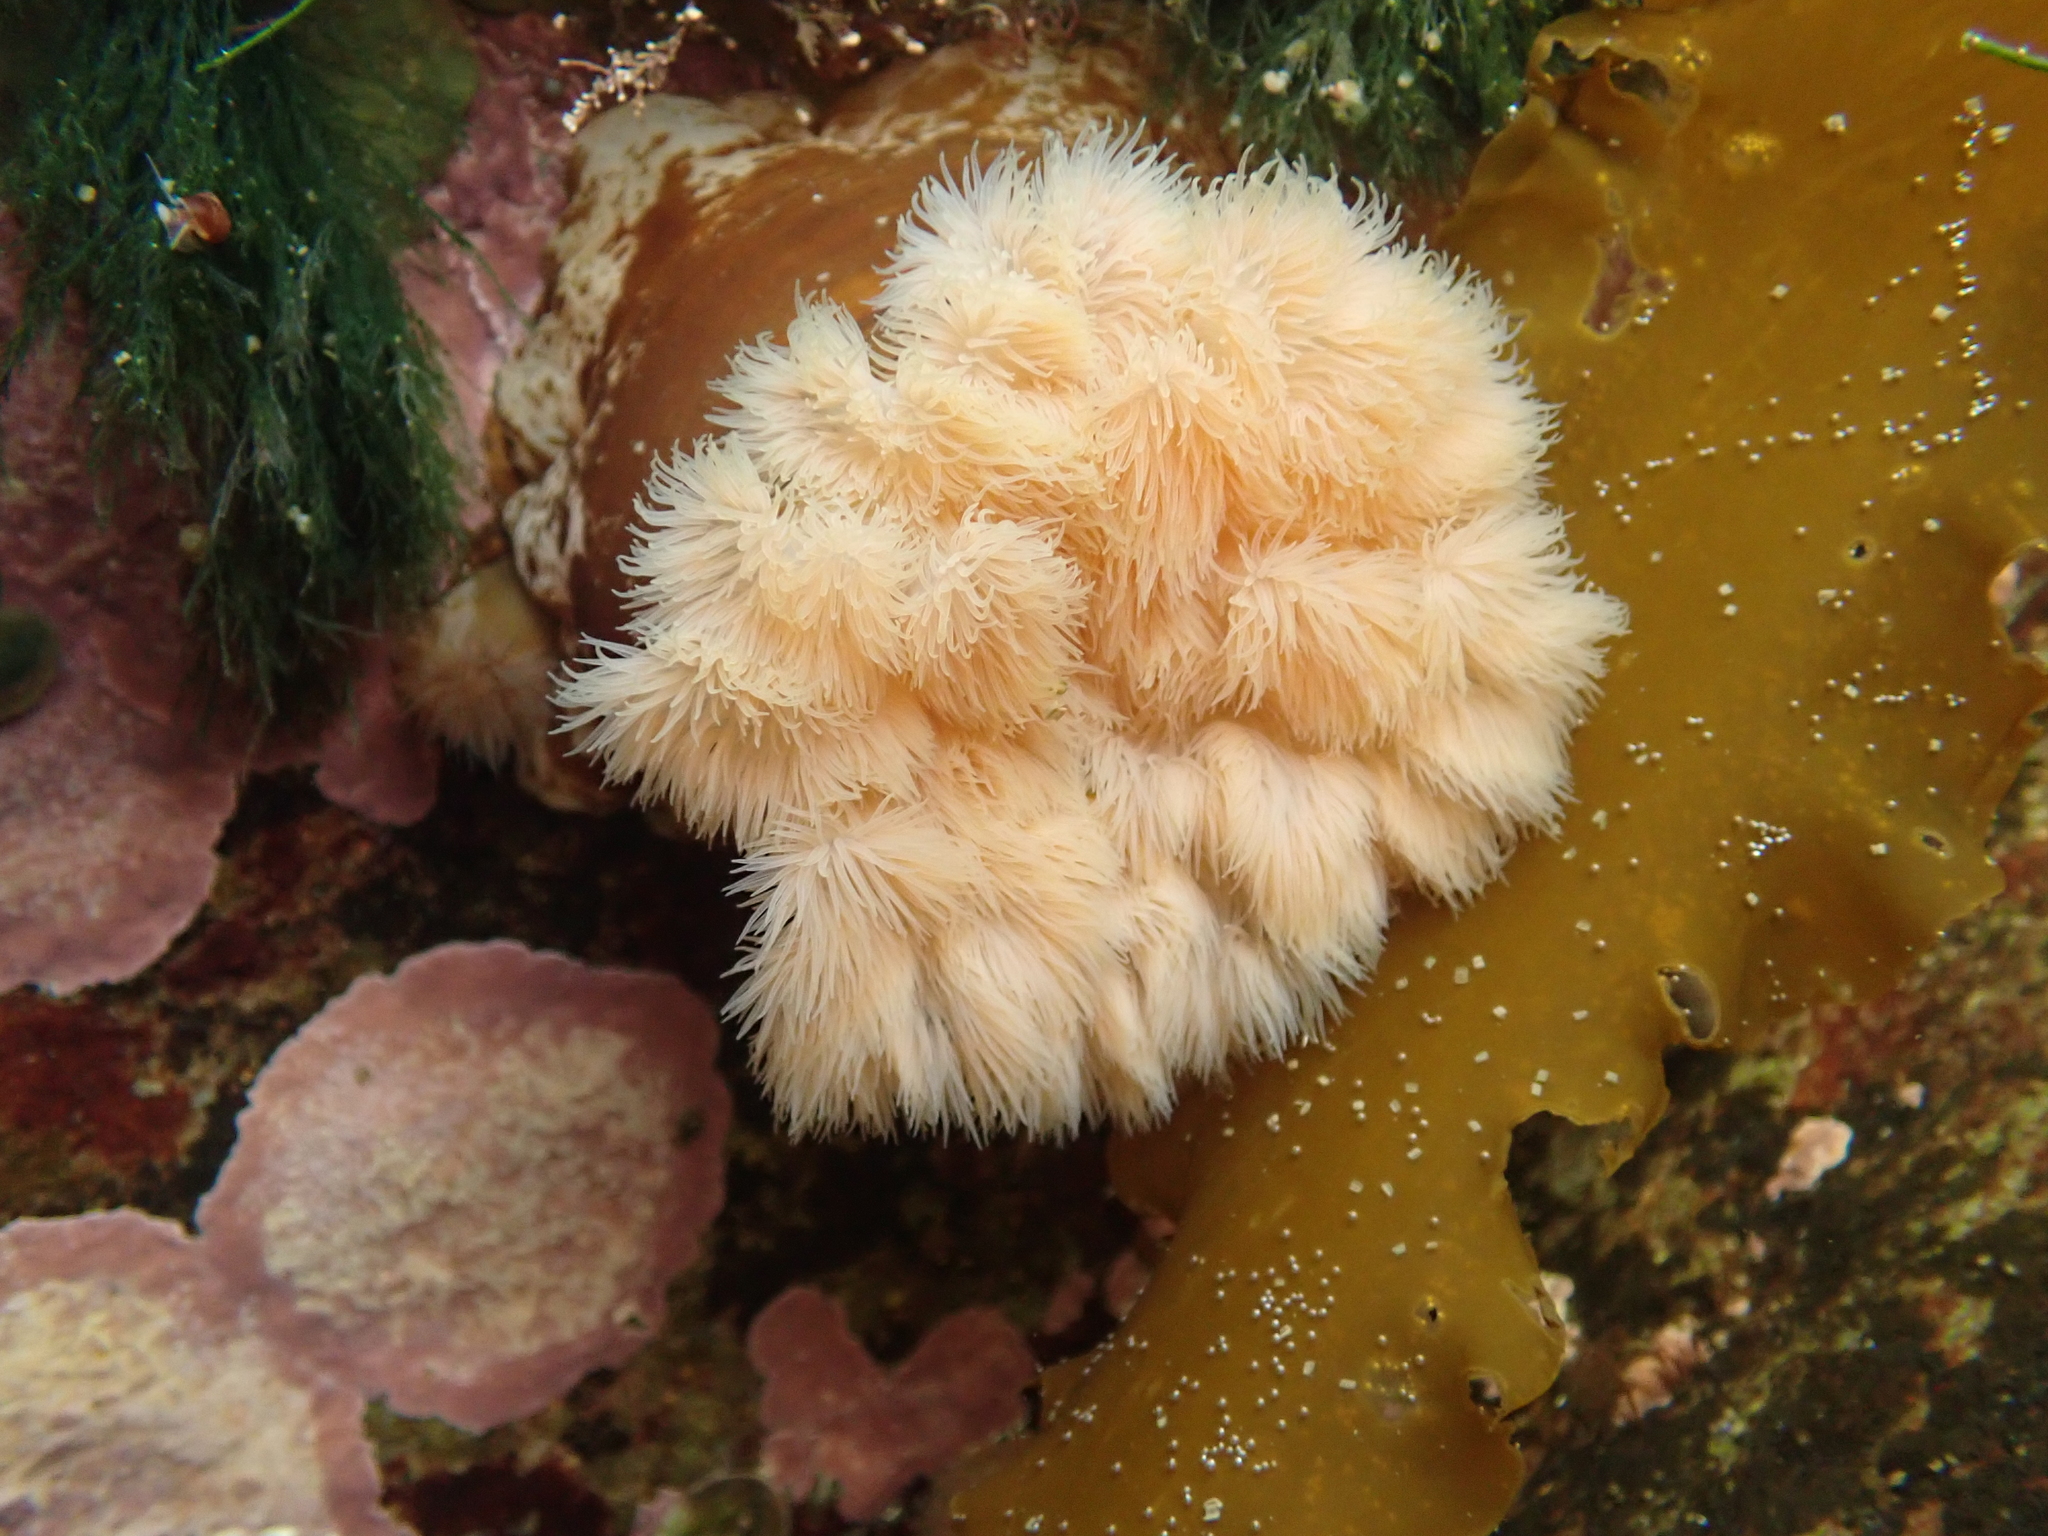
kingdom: Animalia
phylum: Cnidaria
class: Anthozoa
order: Actiniaria
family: Metridiidae
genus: Metridium
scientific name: Metridium senile
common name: Clonal plumose anemone
